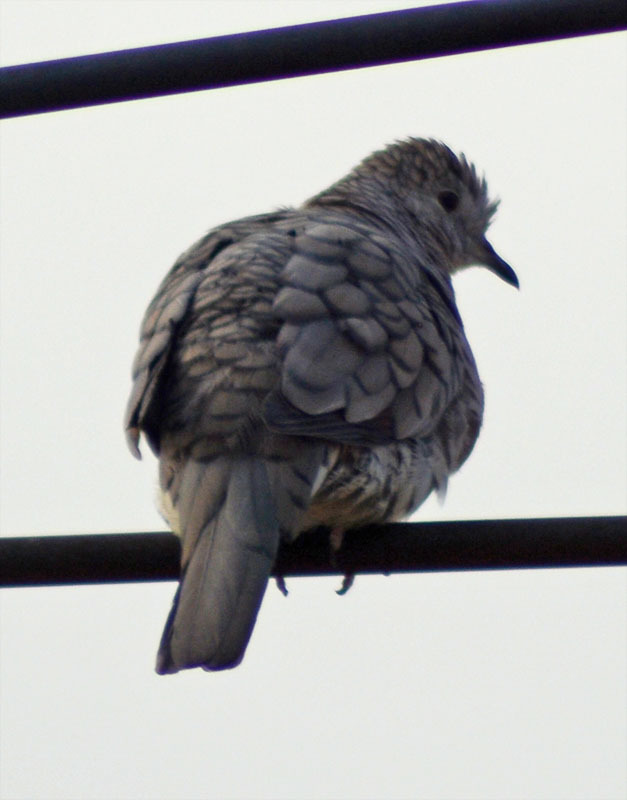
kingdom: Animalia
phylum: Chordata
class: Aves
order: Columbiformes
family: Columbidae
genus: Columbina
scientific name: Columbina inca
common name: Inca dove
